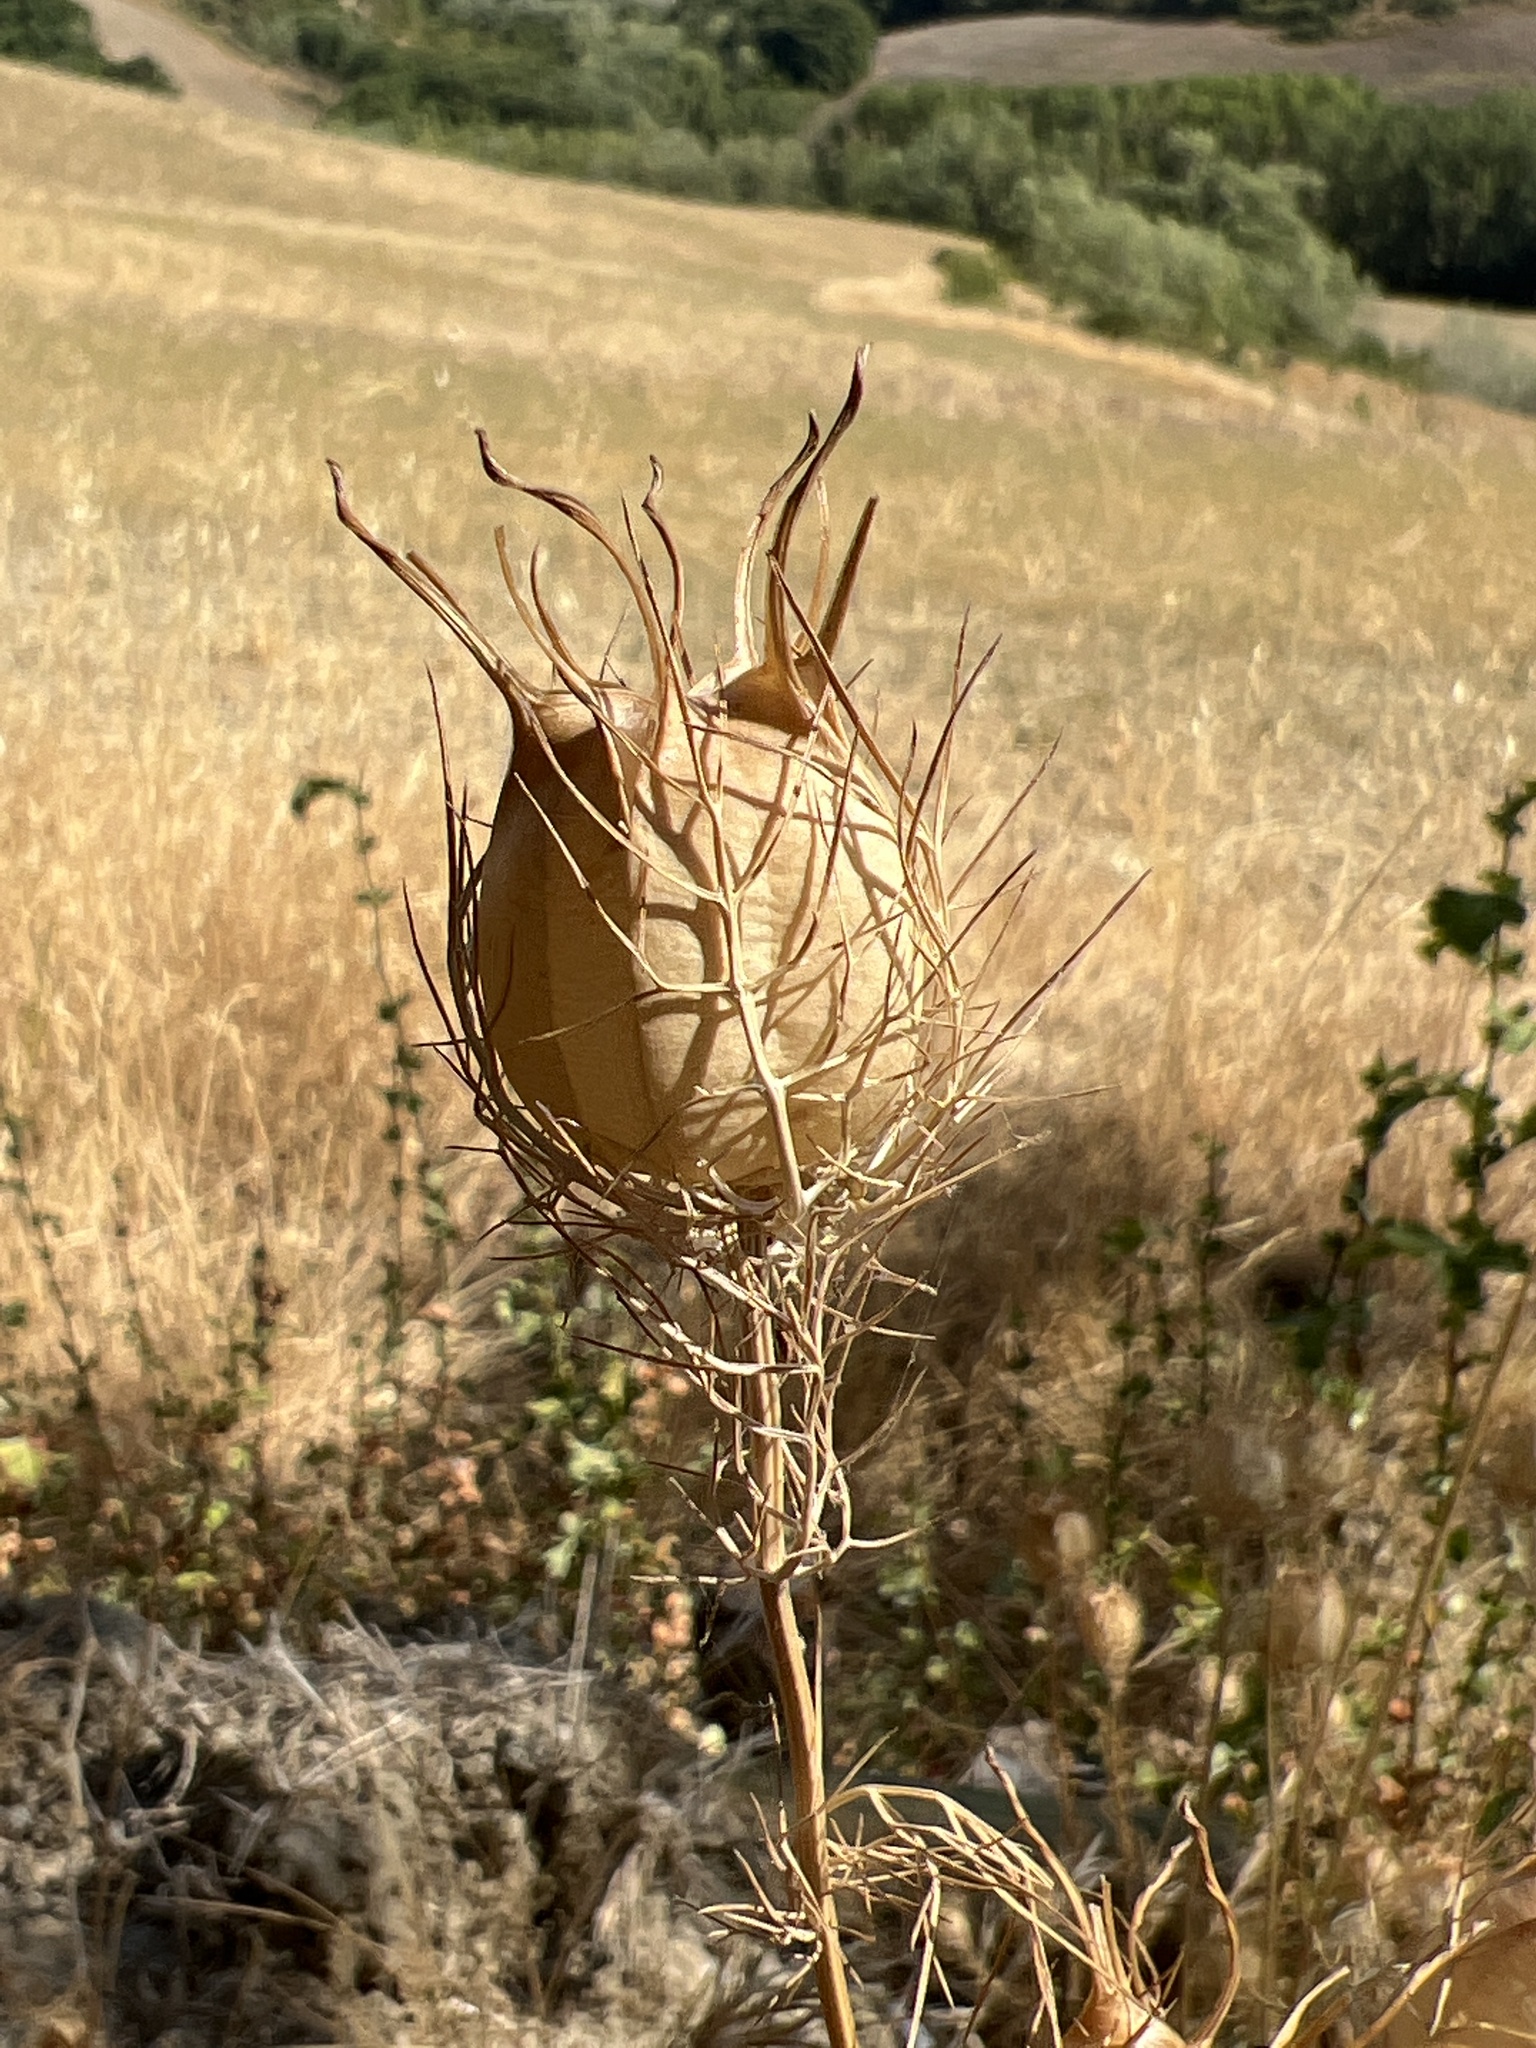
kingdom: Plantae
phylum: Tracheophyta
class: Magnoliopsida
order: Ranunculales
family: Ranunculaceae
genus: Nigella
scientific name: Nigella damascena
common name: Love-in-a-mist
